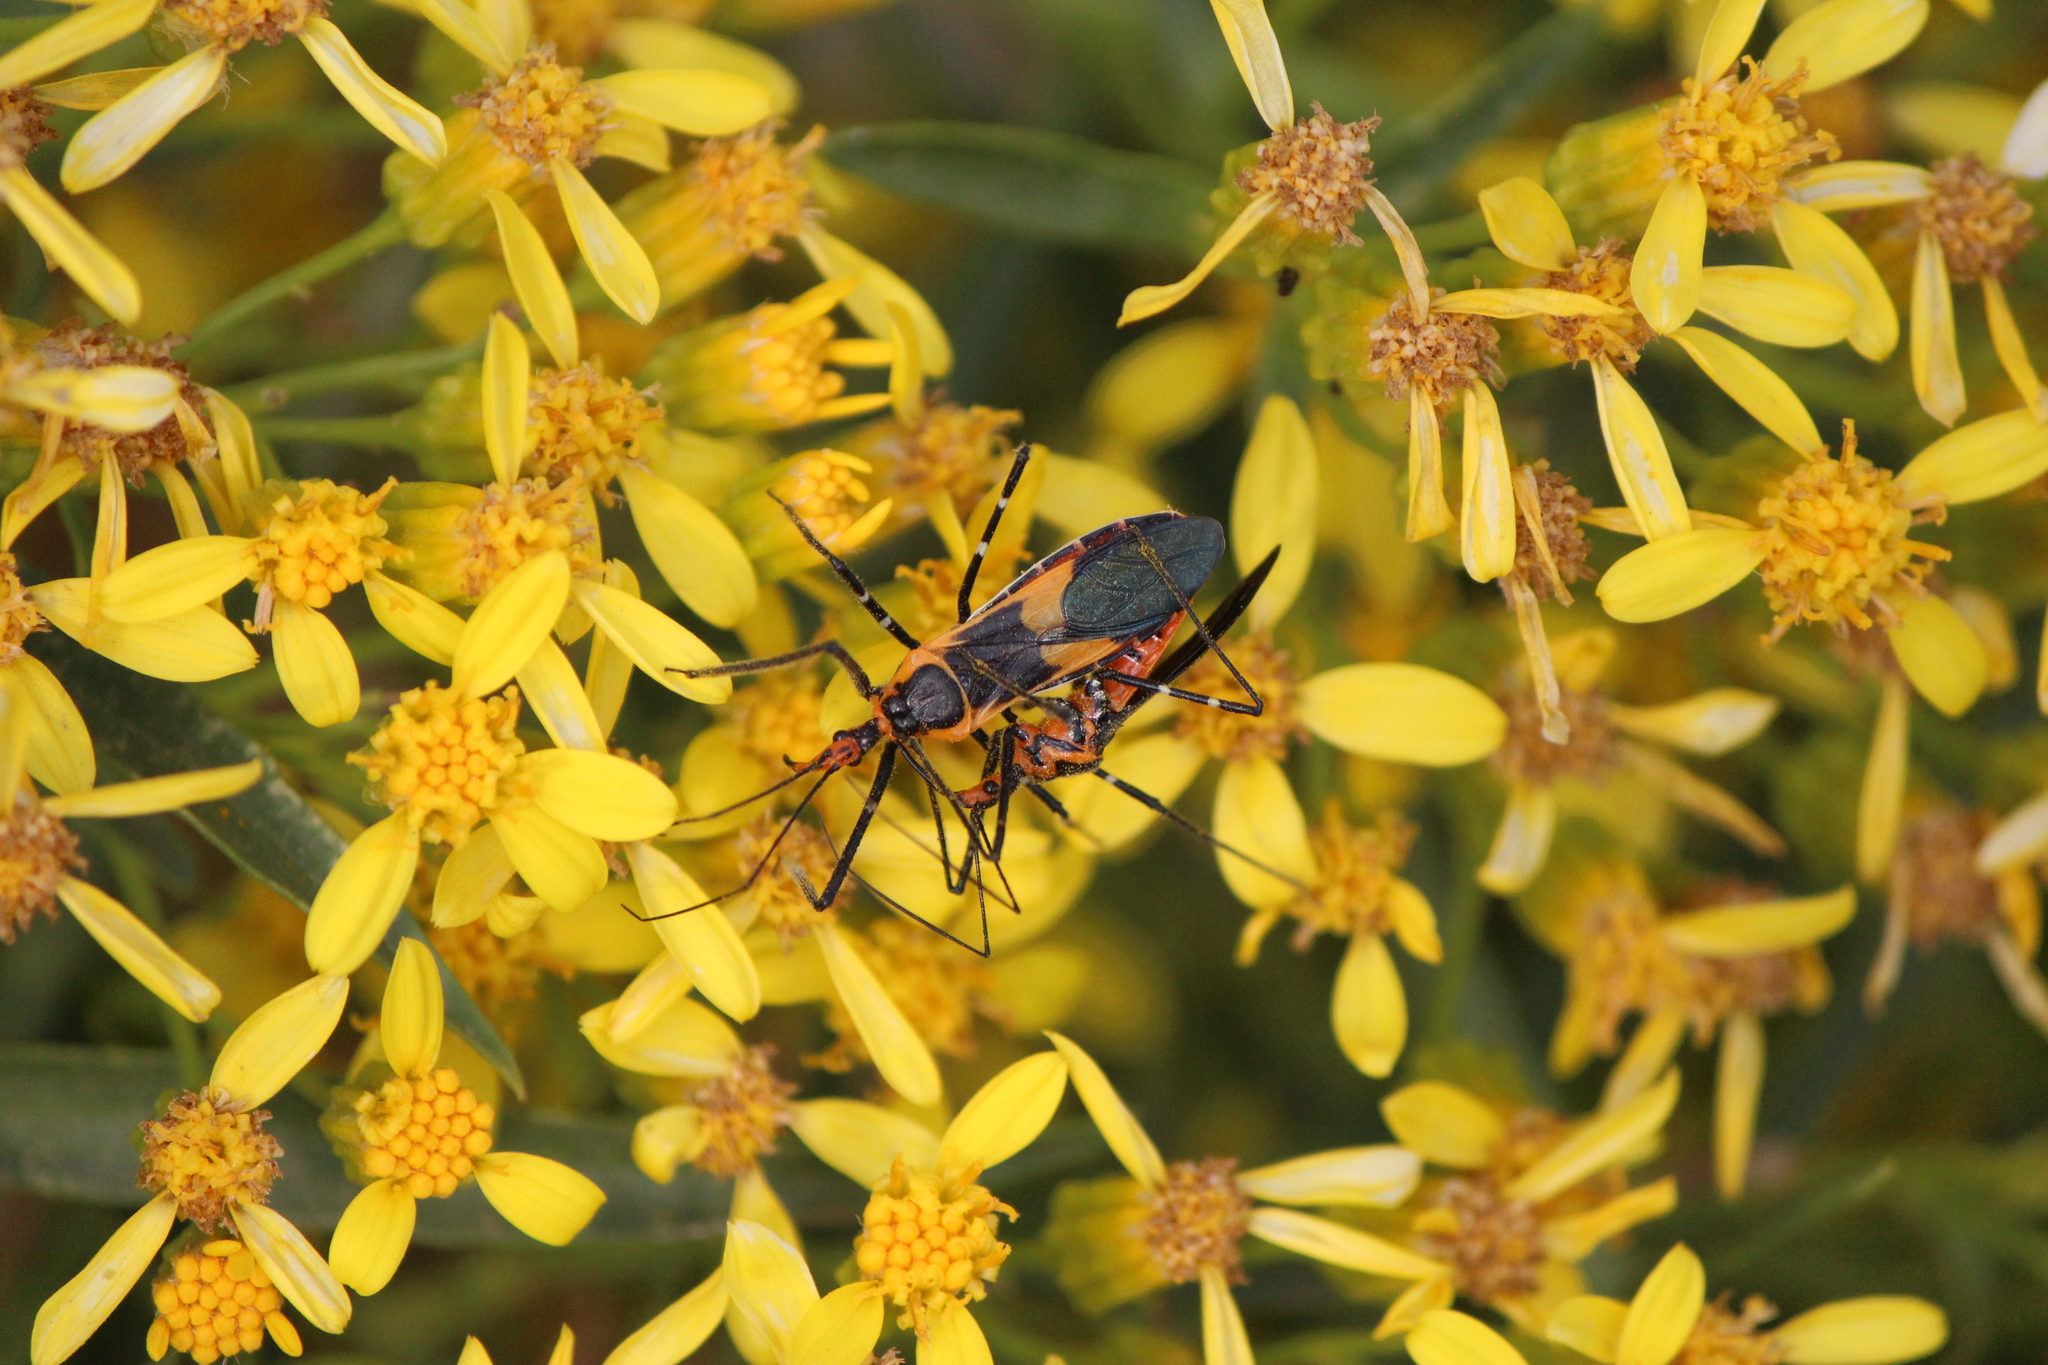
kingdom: Animalia
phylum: Arthropoda
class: Insecta
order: Hemiptera
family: Reduviidae
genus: Zelus
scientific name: Zelus longipes
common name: Milkweed assassin bug
